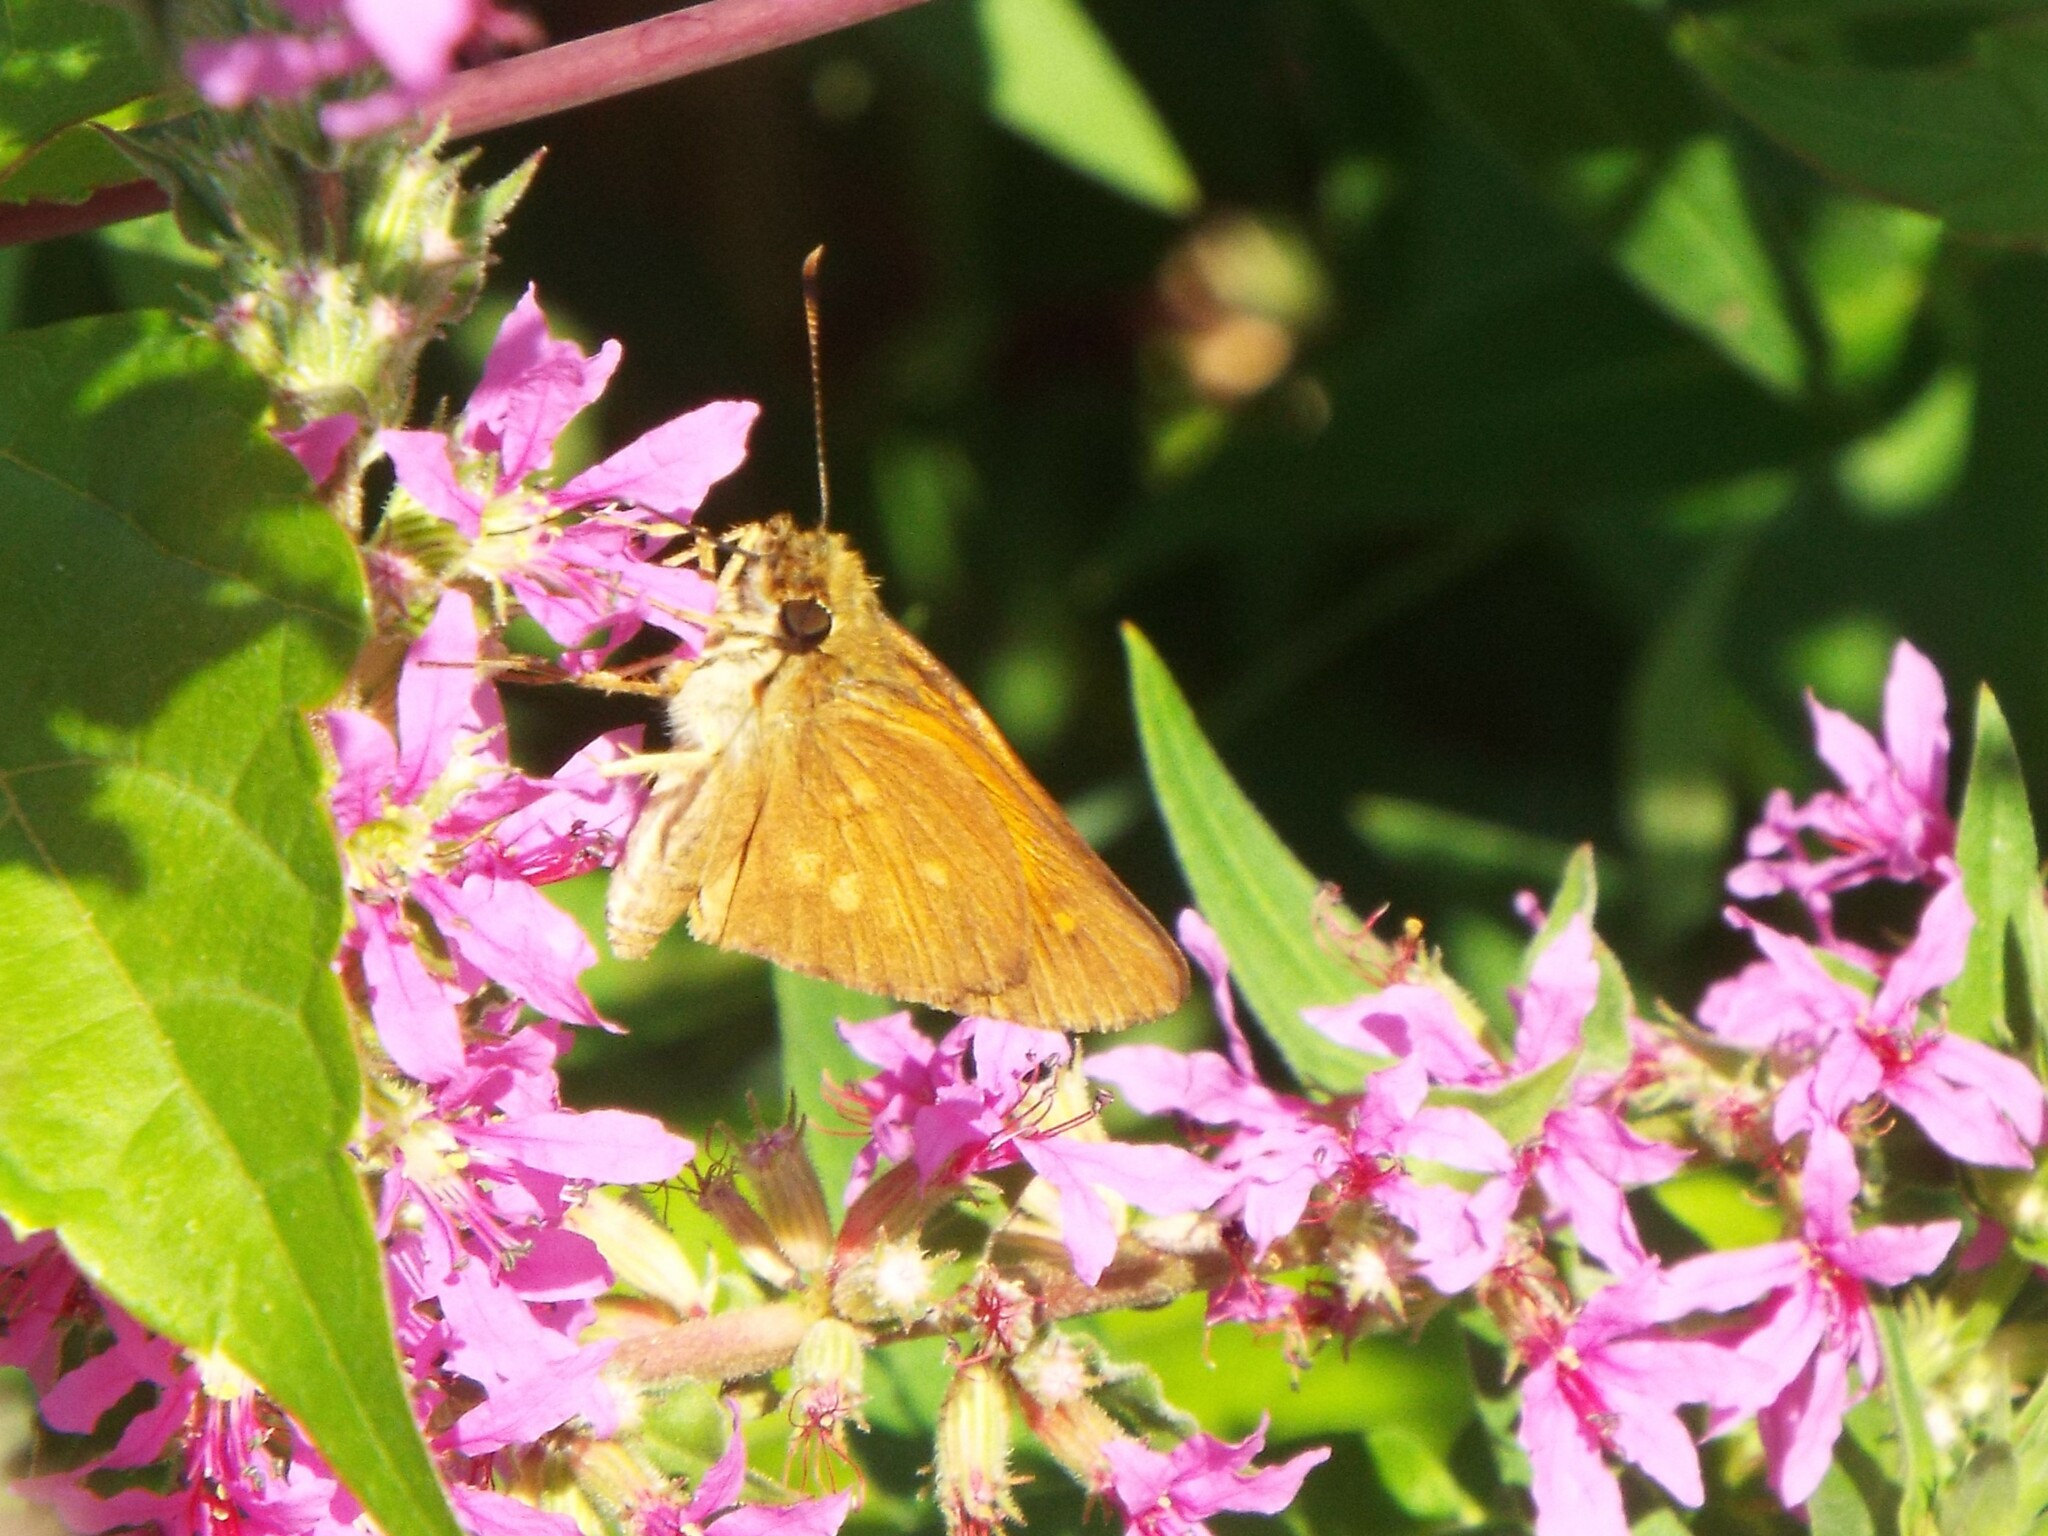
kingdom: Animalia
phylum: Arthropoda
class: Insecta
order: Lepidoptera
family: Hesperiidae
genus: Poanes
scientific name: Poanes viator
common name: Broad-winged skipper
